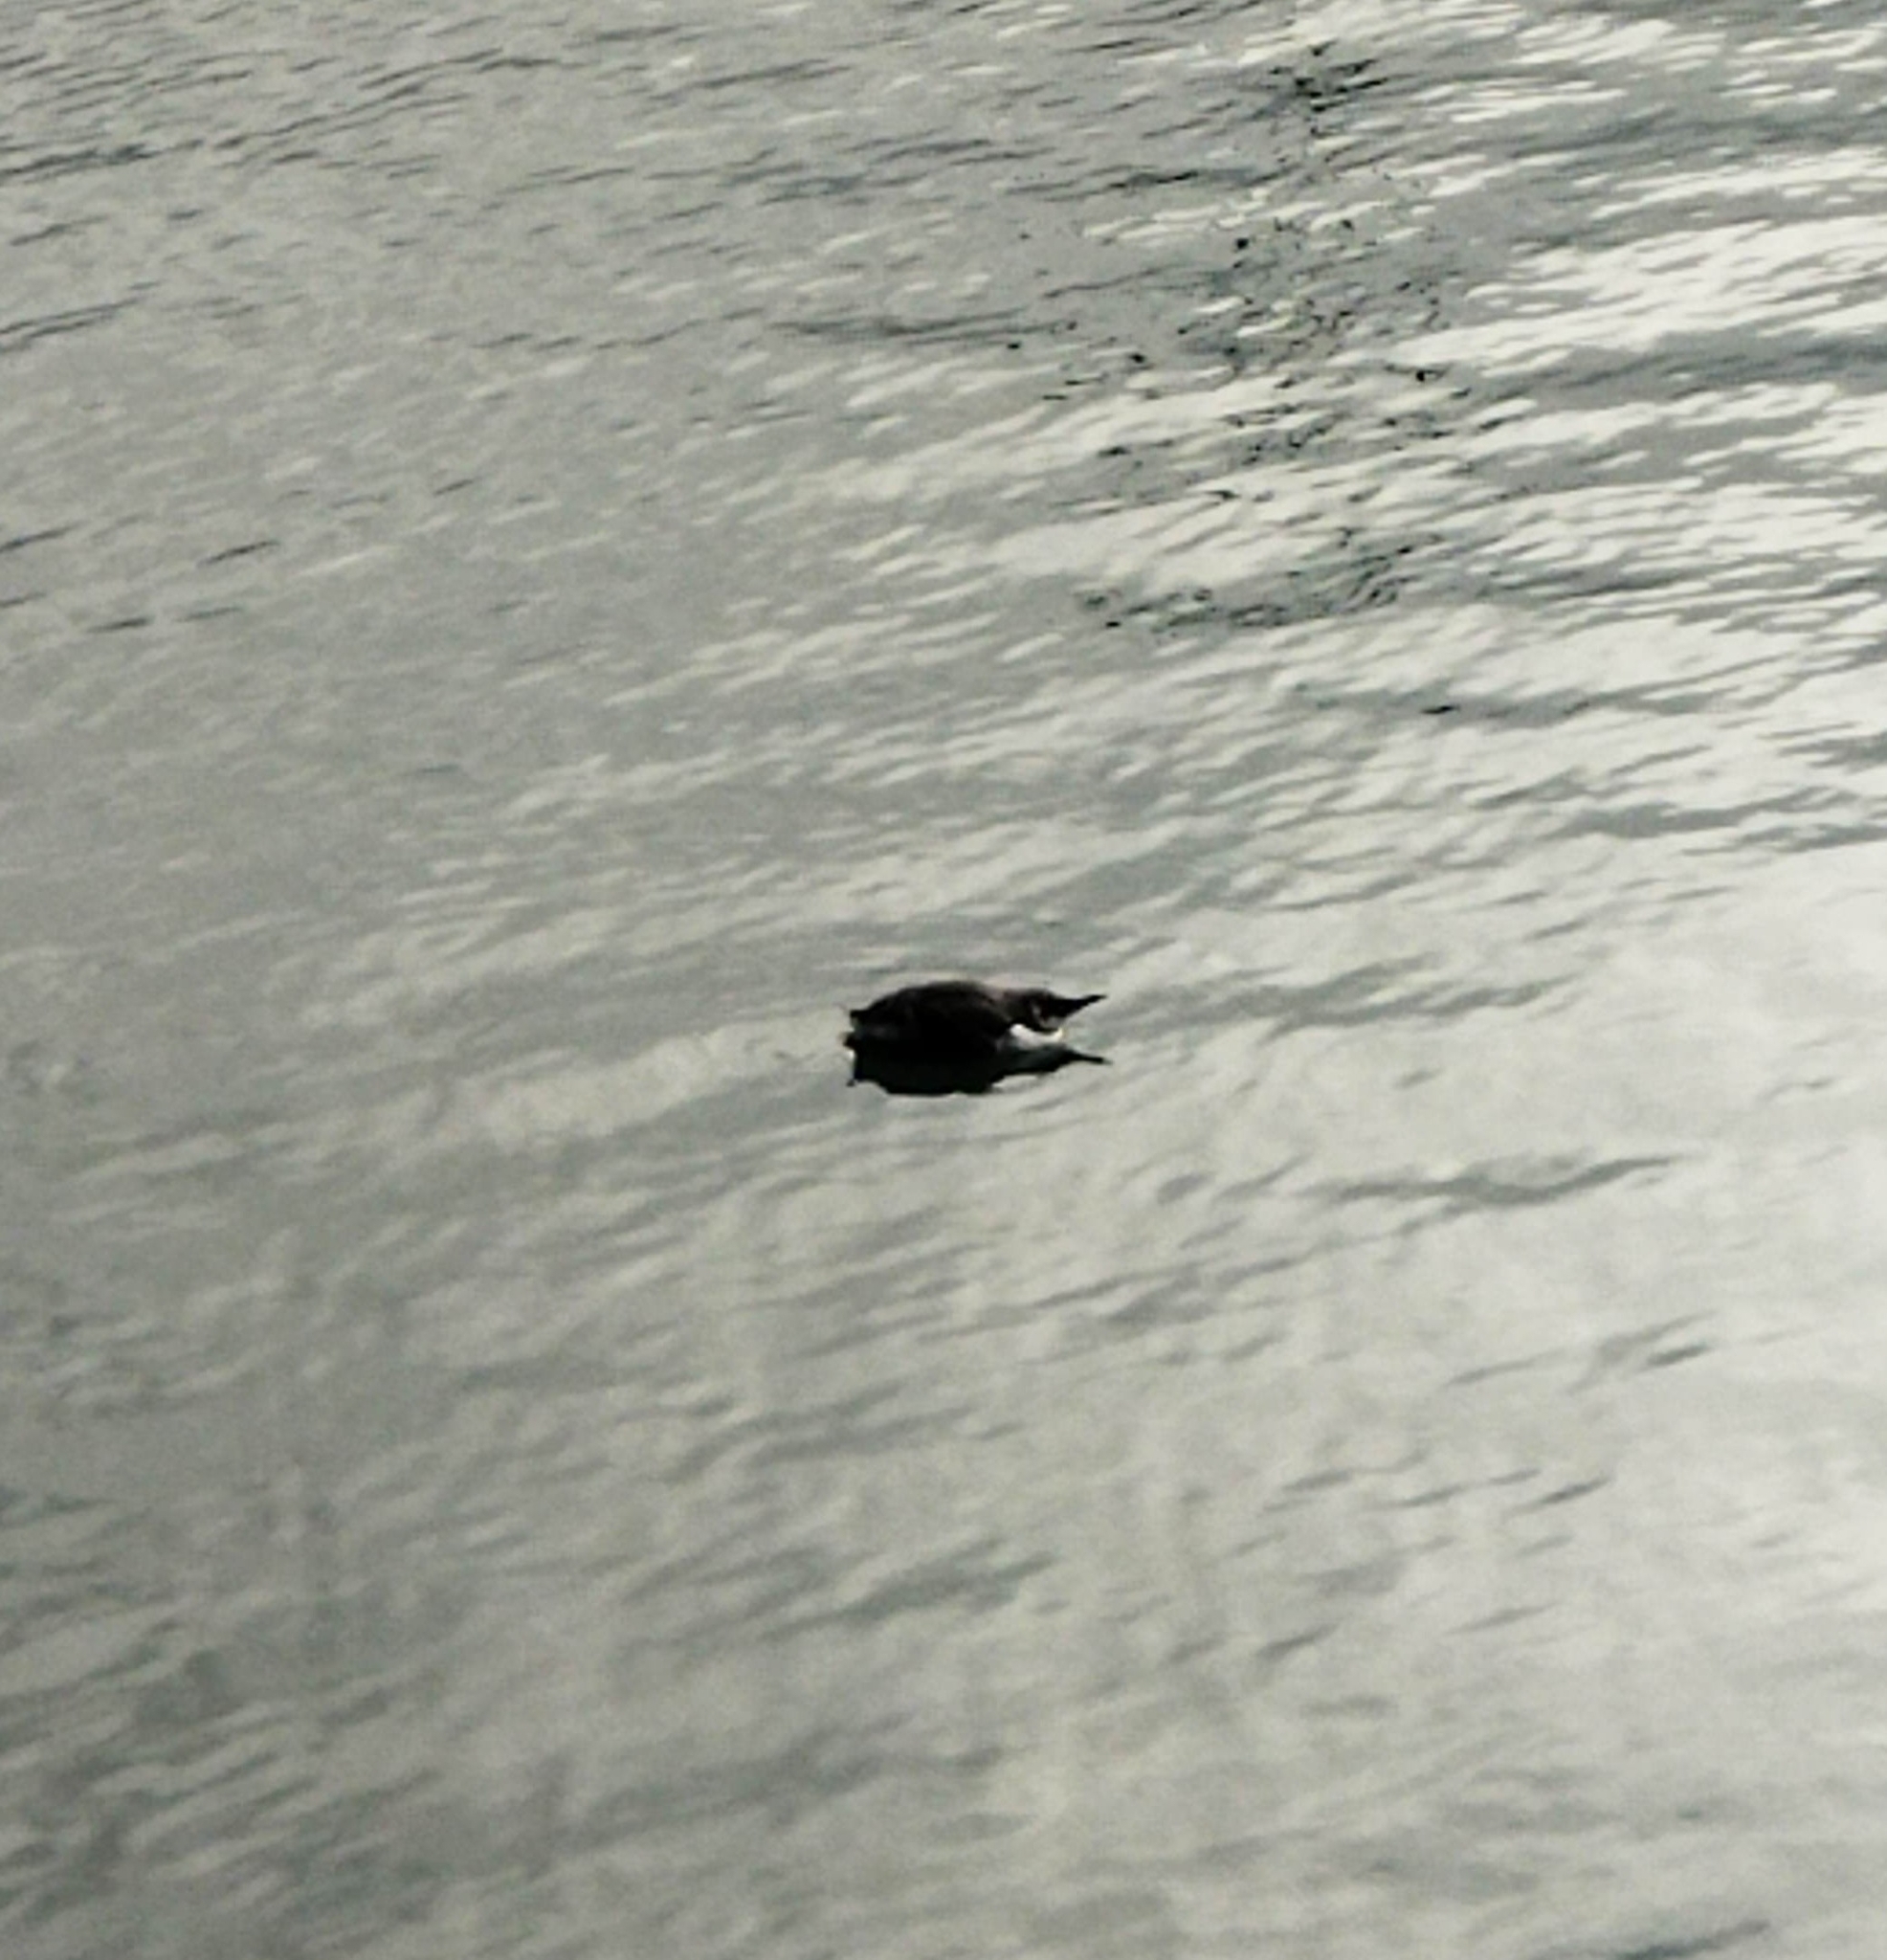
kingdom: Animalia
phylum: Chordata
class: Aves
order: Charadriiformes
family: Alcidae
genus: Uria
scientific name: Uria aalge
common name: Common murre
